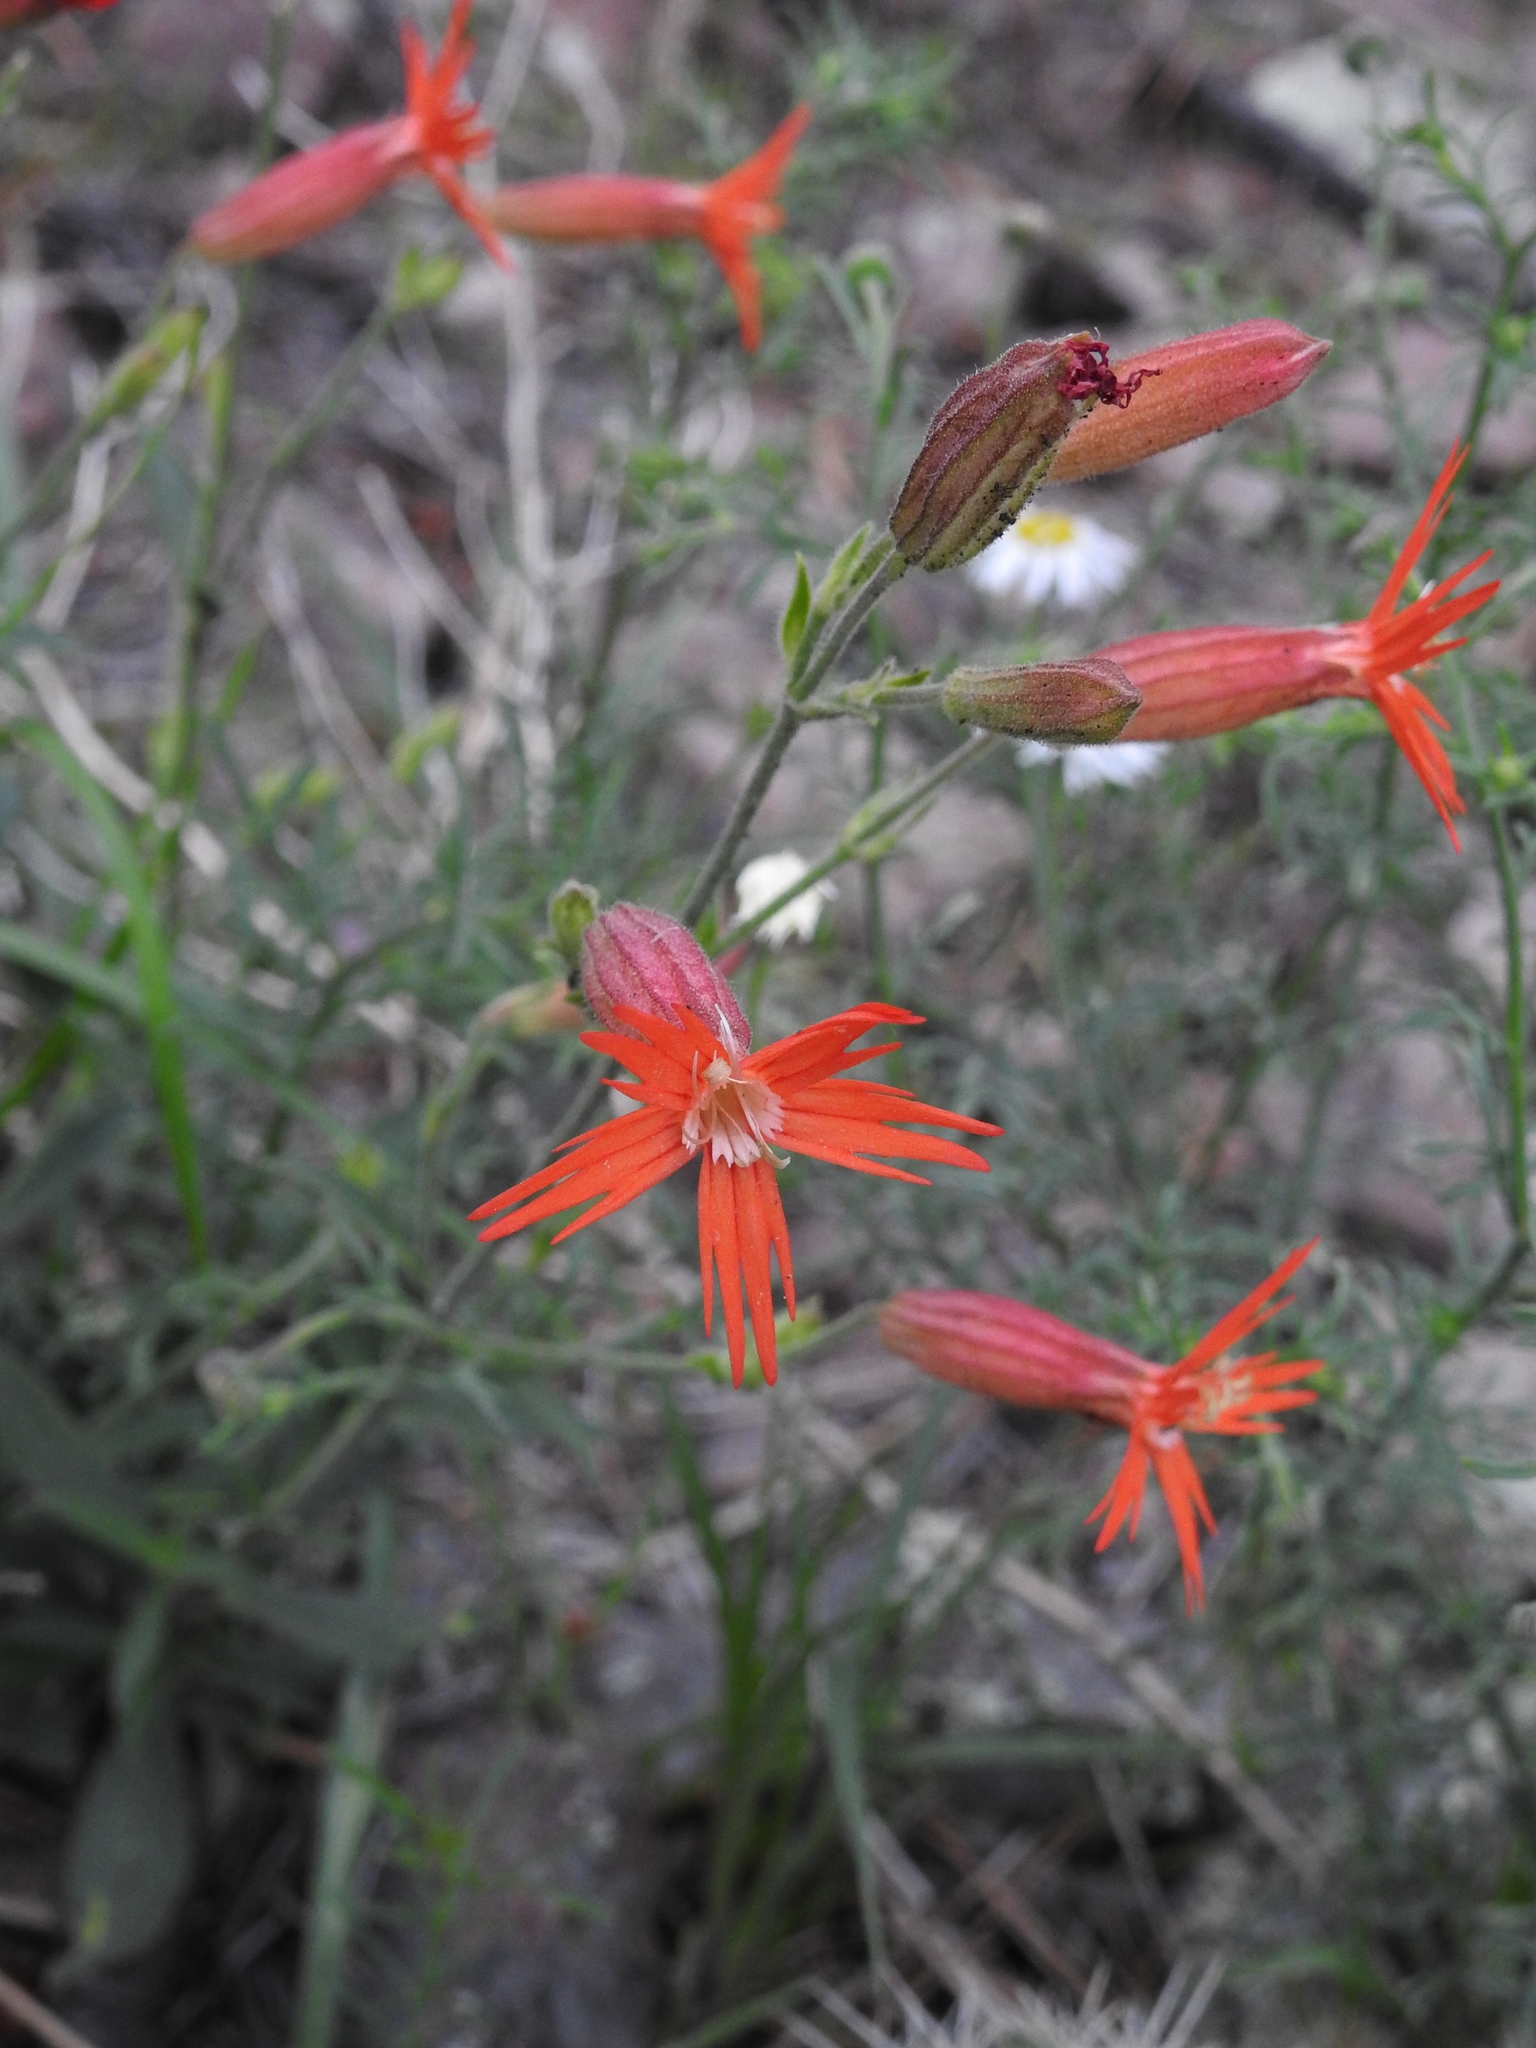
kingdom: Plantae
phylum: Tracheophyta
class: Magnoliopsida
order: Caryophyllales
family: Caryophyllaceae
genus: Silene
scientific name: Silene laciniata
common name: Indian-pink
